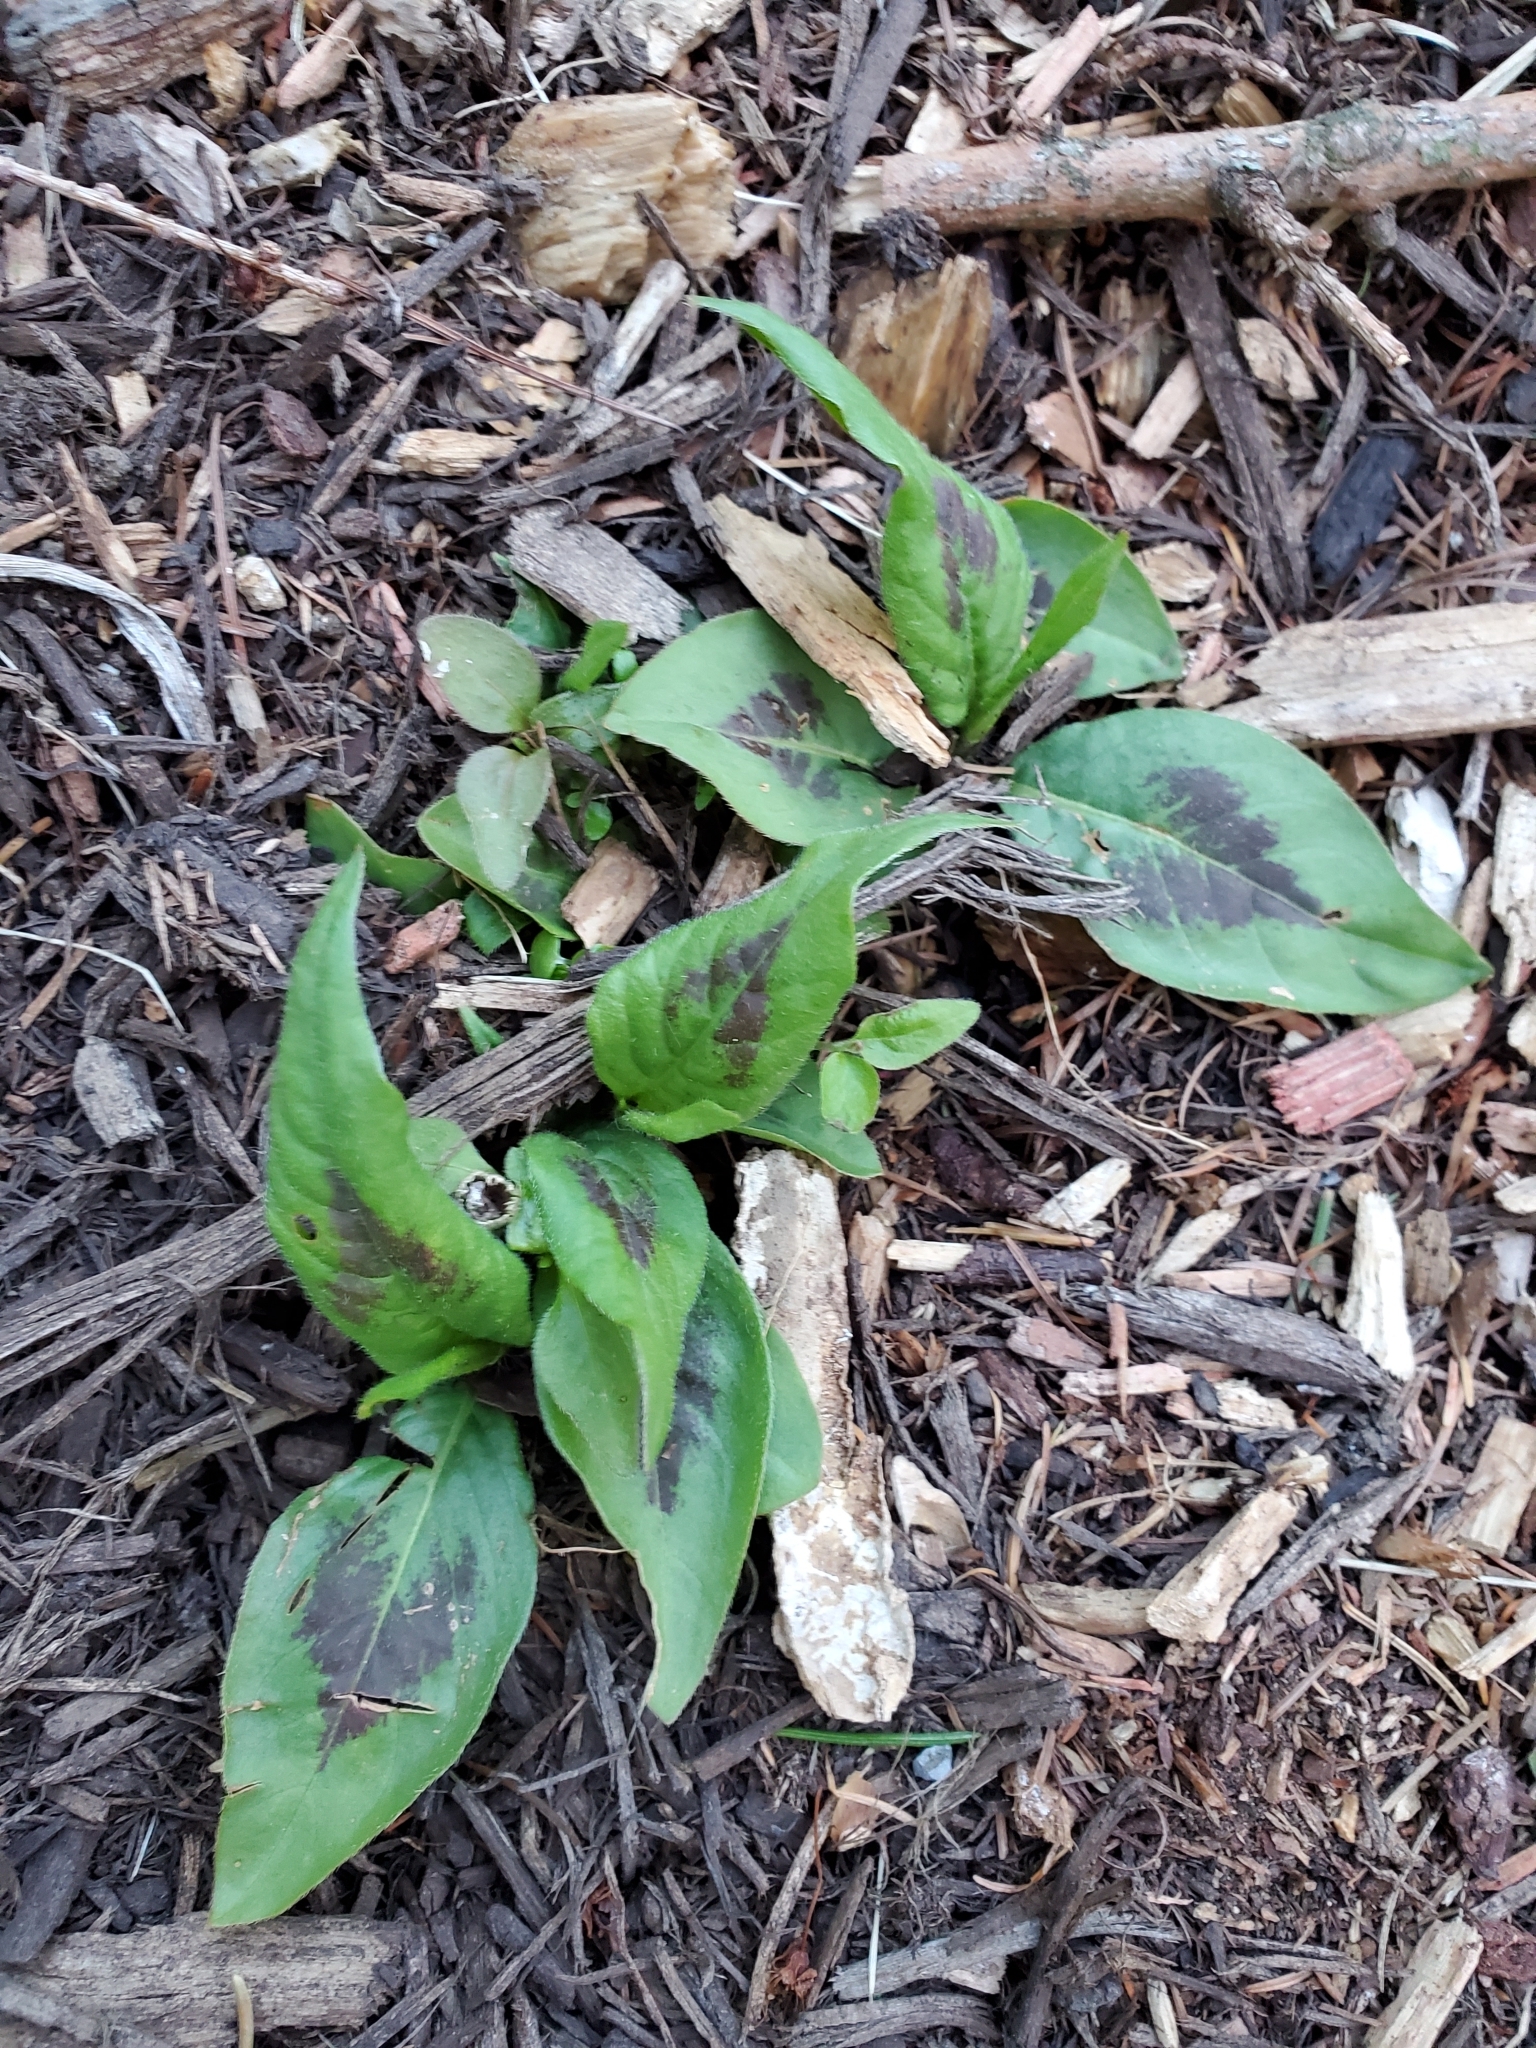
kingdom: Plantae
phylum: Tracheophyta
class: Magnoliopsida
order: Caryophyllales
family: Polygonaceae
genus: Persicaria
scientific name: Persicaria virginiana
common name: Jumpseed
